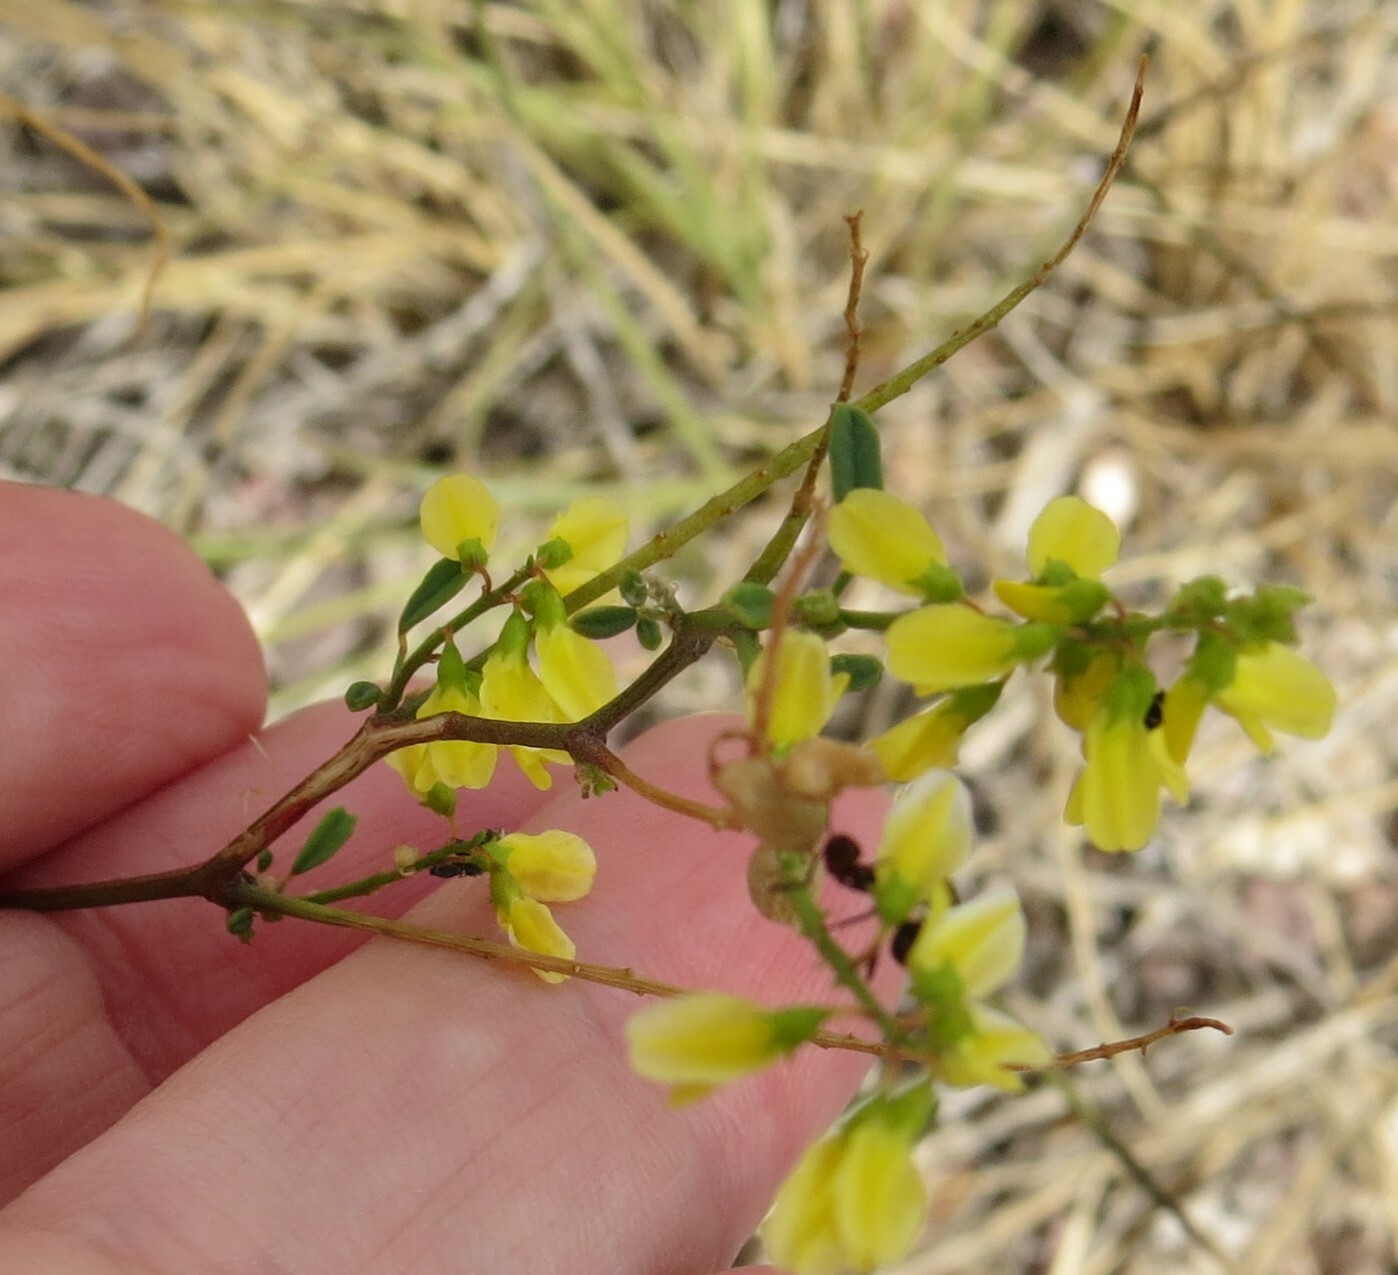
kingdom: Plantae
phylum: Tracheophyta
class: Magnoliopsida
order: Fabales
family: Fabaceae
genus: Melilotus
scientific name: Melilotus officinalis
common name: Sweetclover
